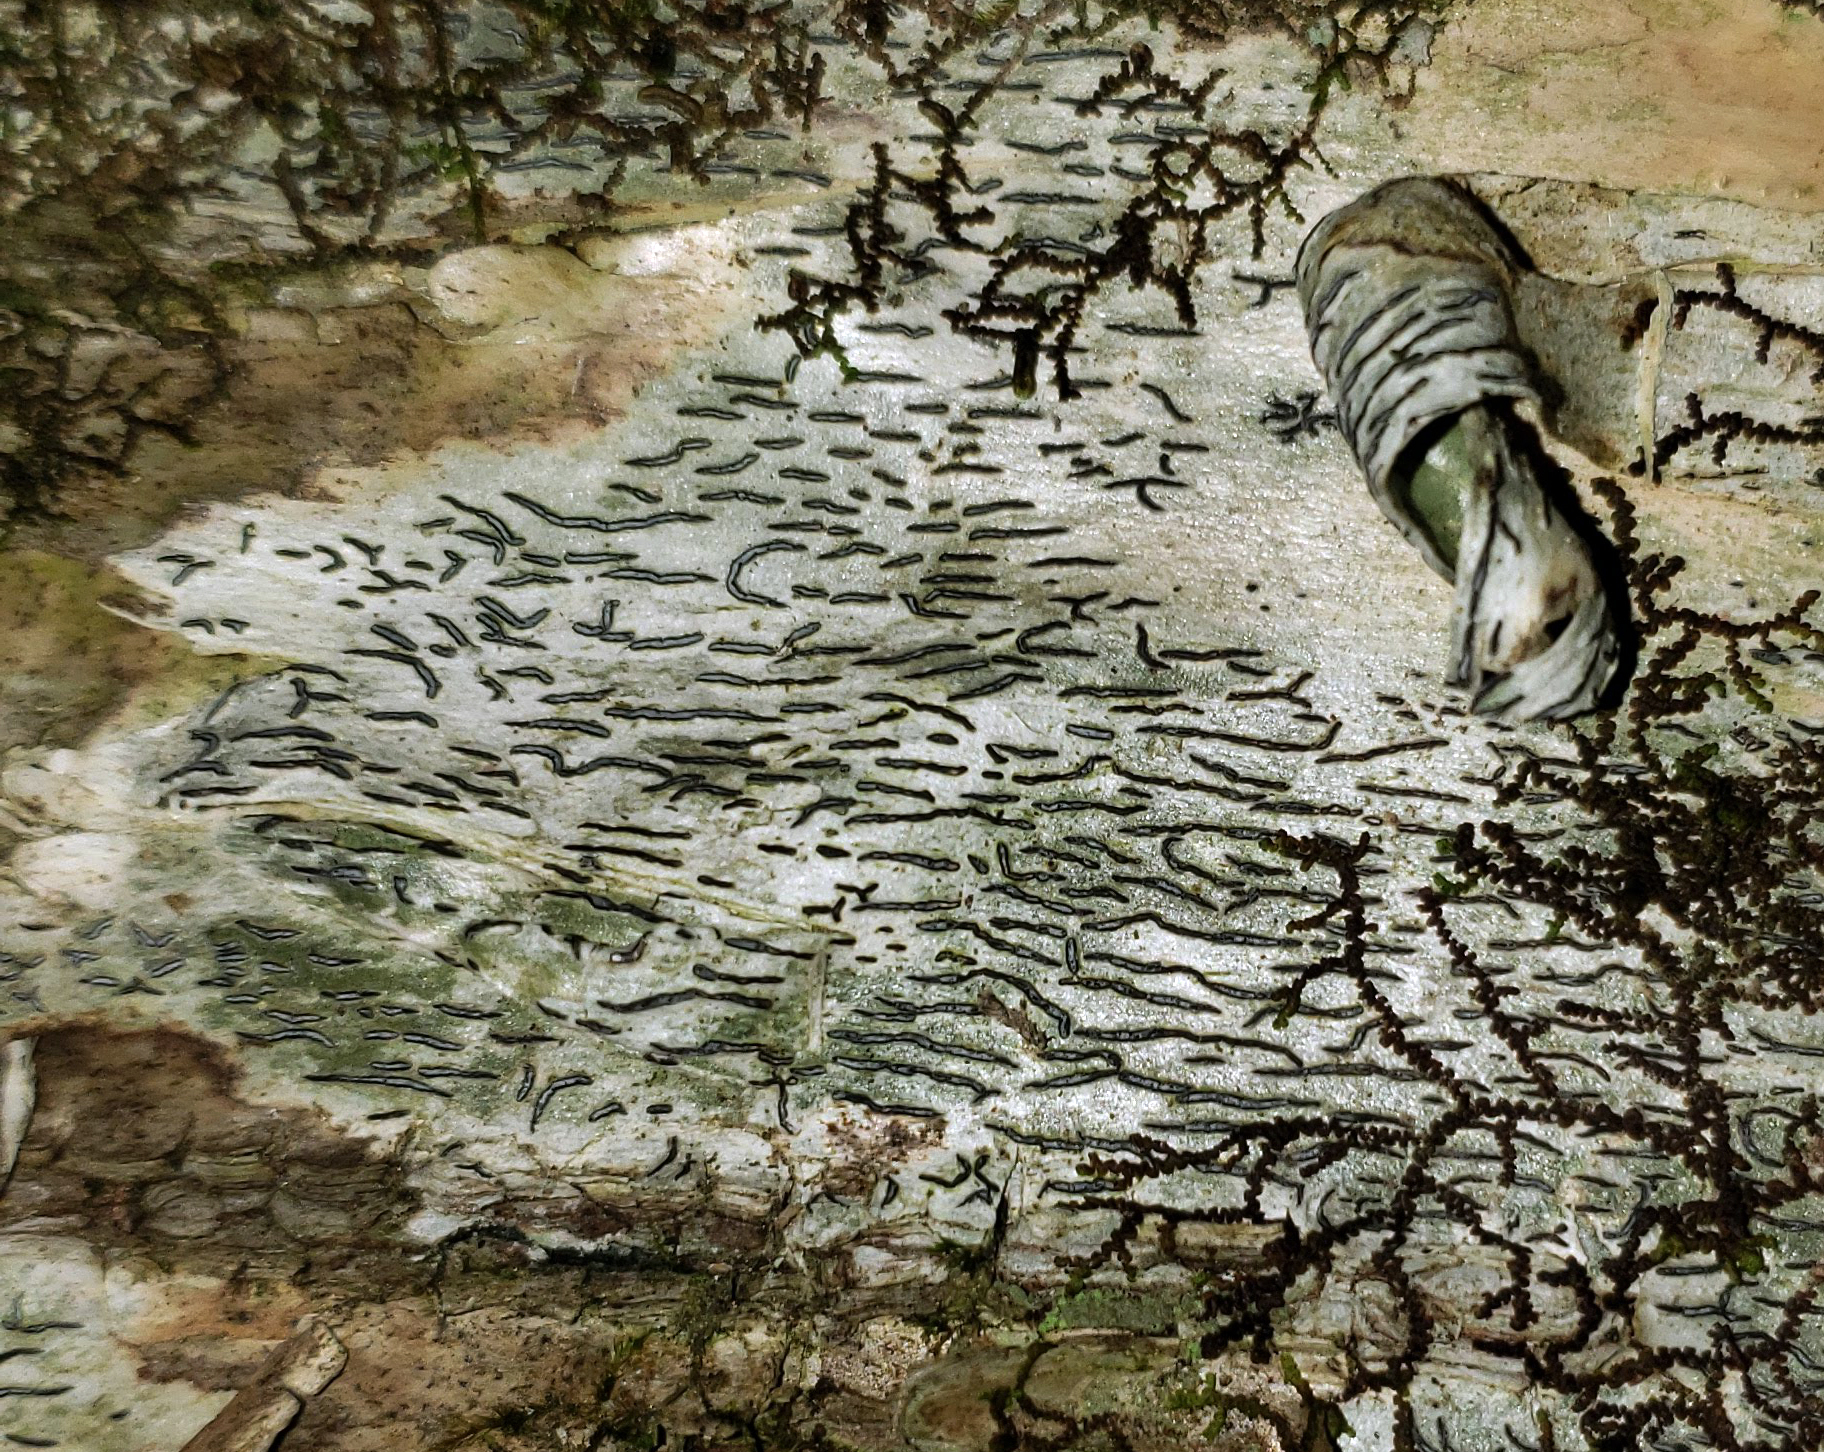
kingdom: Fungi
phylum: Ascomycota
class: Lecanoromycetes
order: Ostropales
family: Graphidaceae
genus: Graphis
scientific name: Graphis scripta
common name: Script lichen
